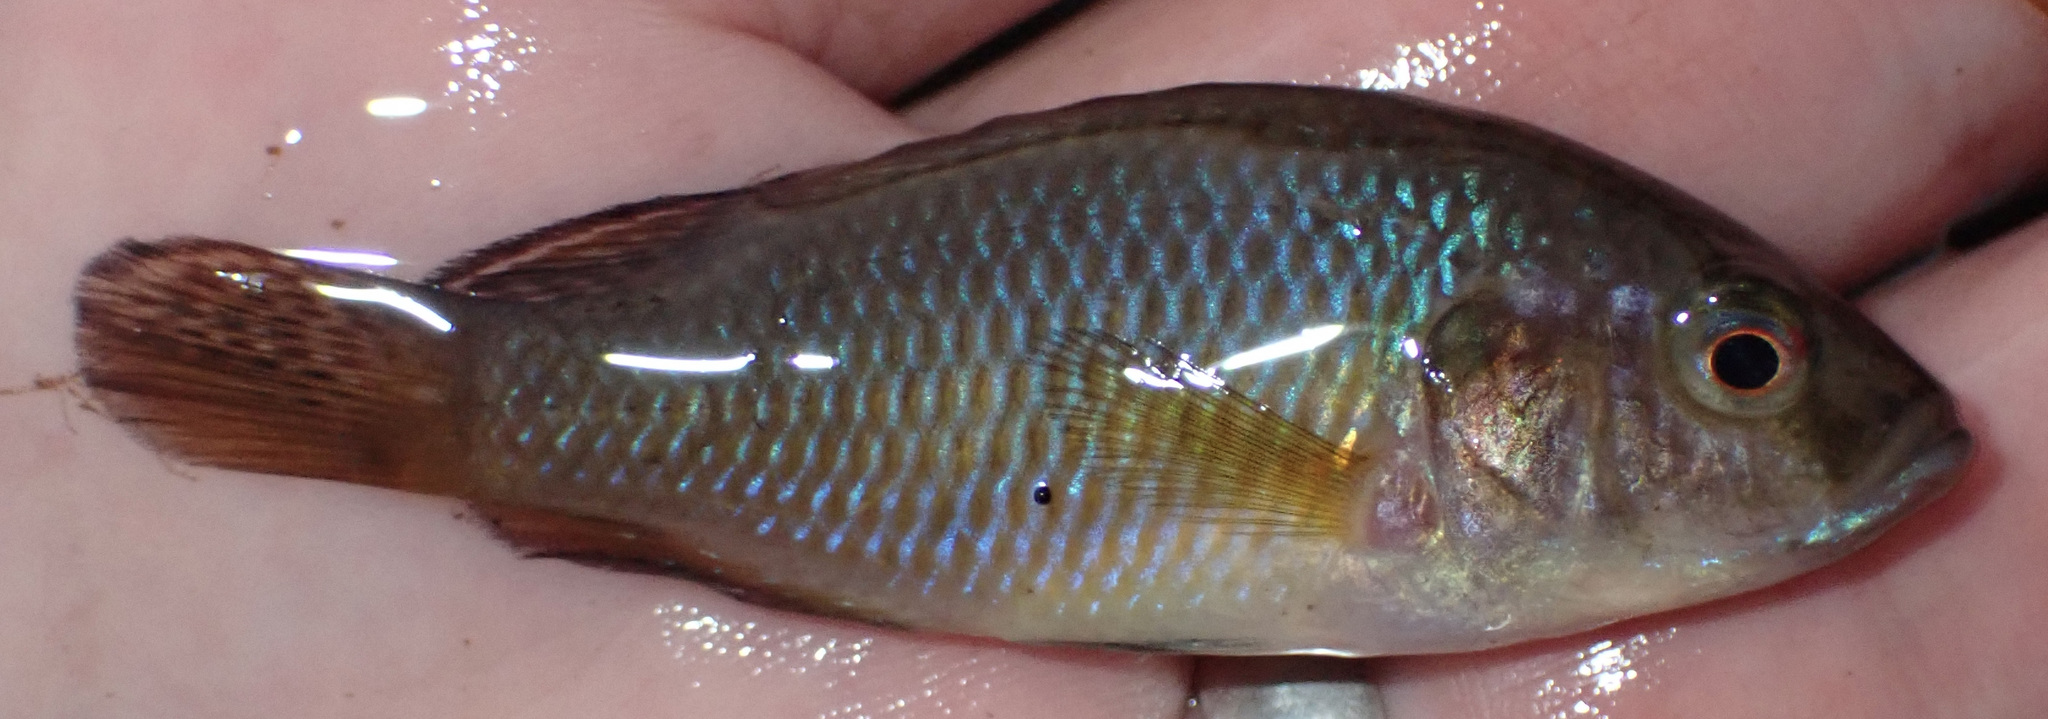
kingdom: Animalia
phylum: Chordata
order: Perciformes
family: Cichlidae
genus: Pseudocrenilabrus
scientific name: Pseudocrenilabrus philander
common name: Southern mouthbrooder
